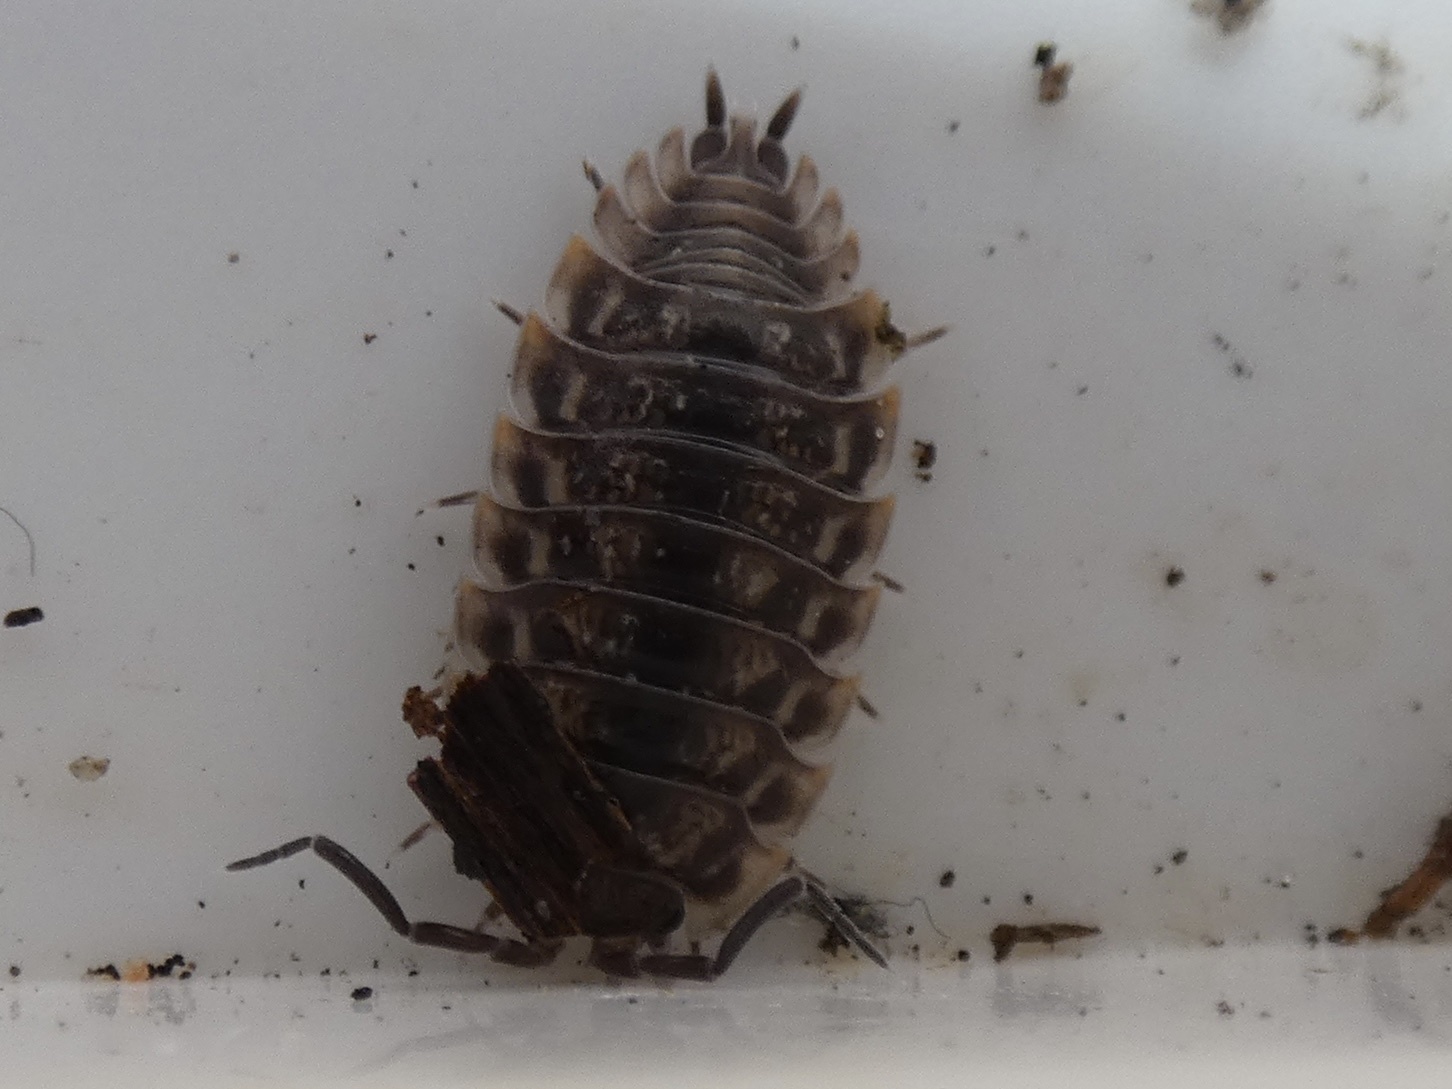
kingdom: Animalia
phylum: Arthropoda
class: Malacostraca
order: Isopoda
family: Oniscidae
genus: Oniscus
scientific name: Oniscus asellus
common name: Common shiny woodlouse
